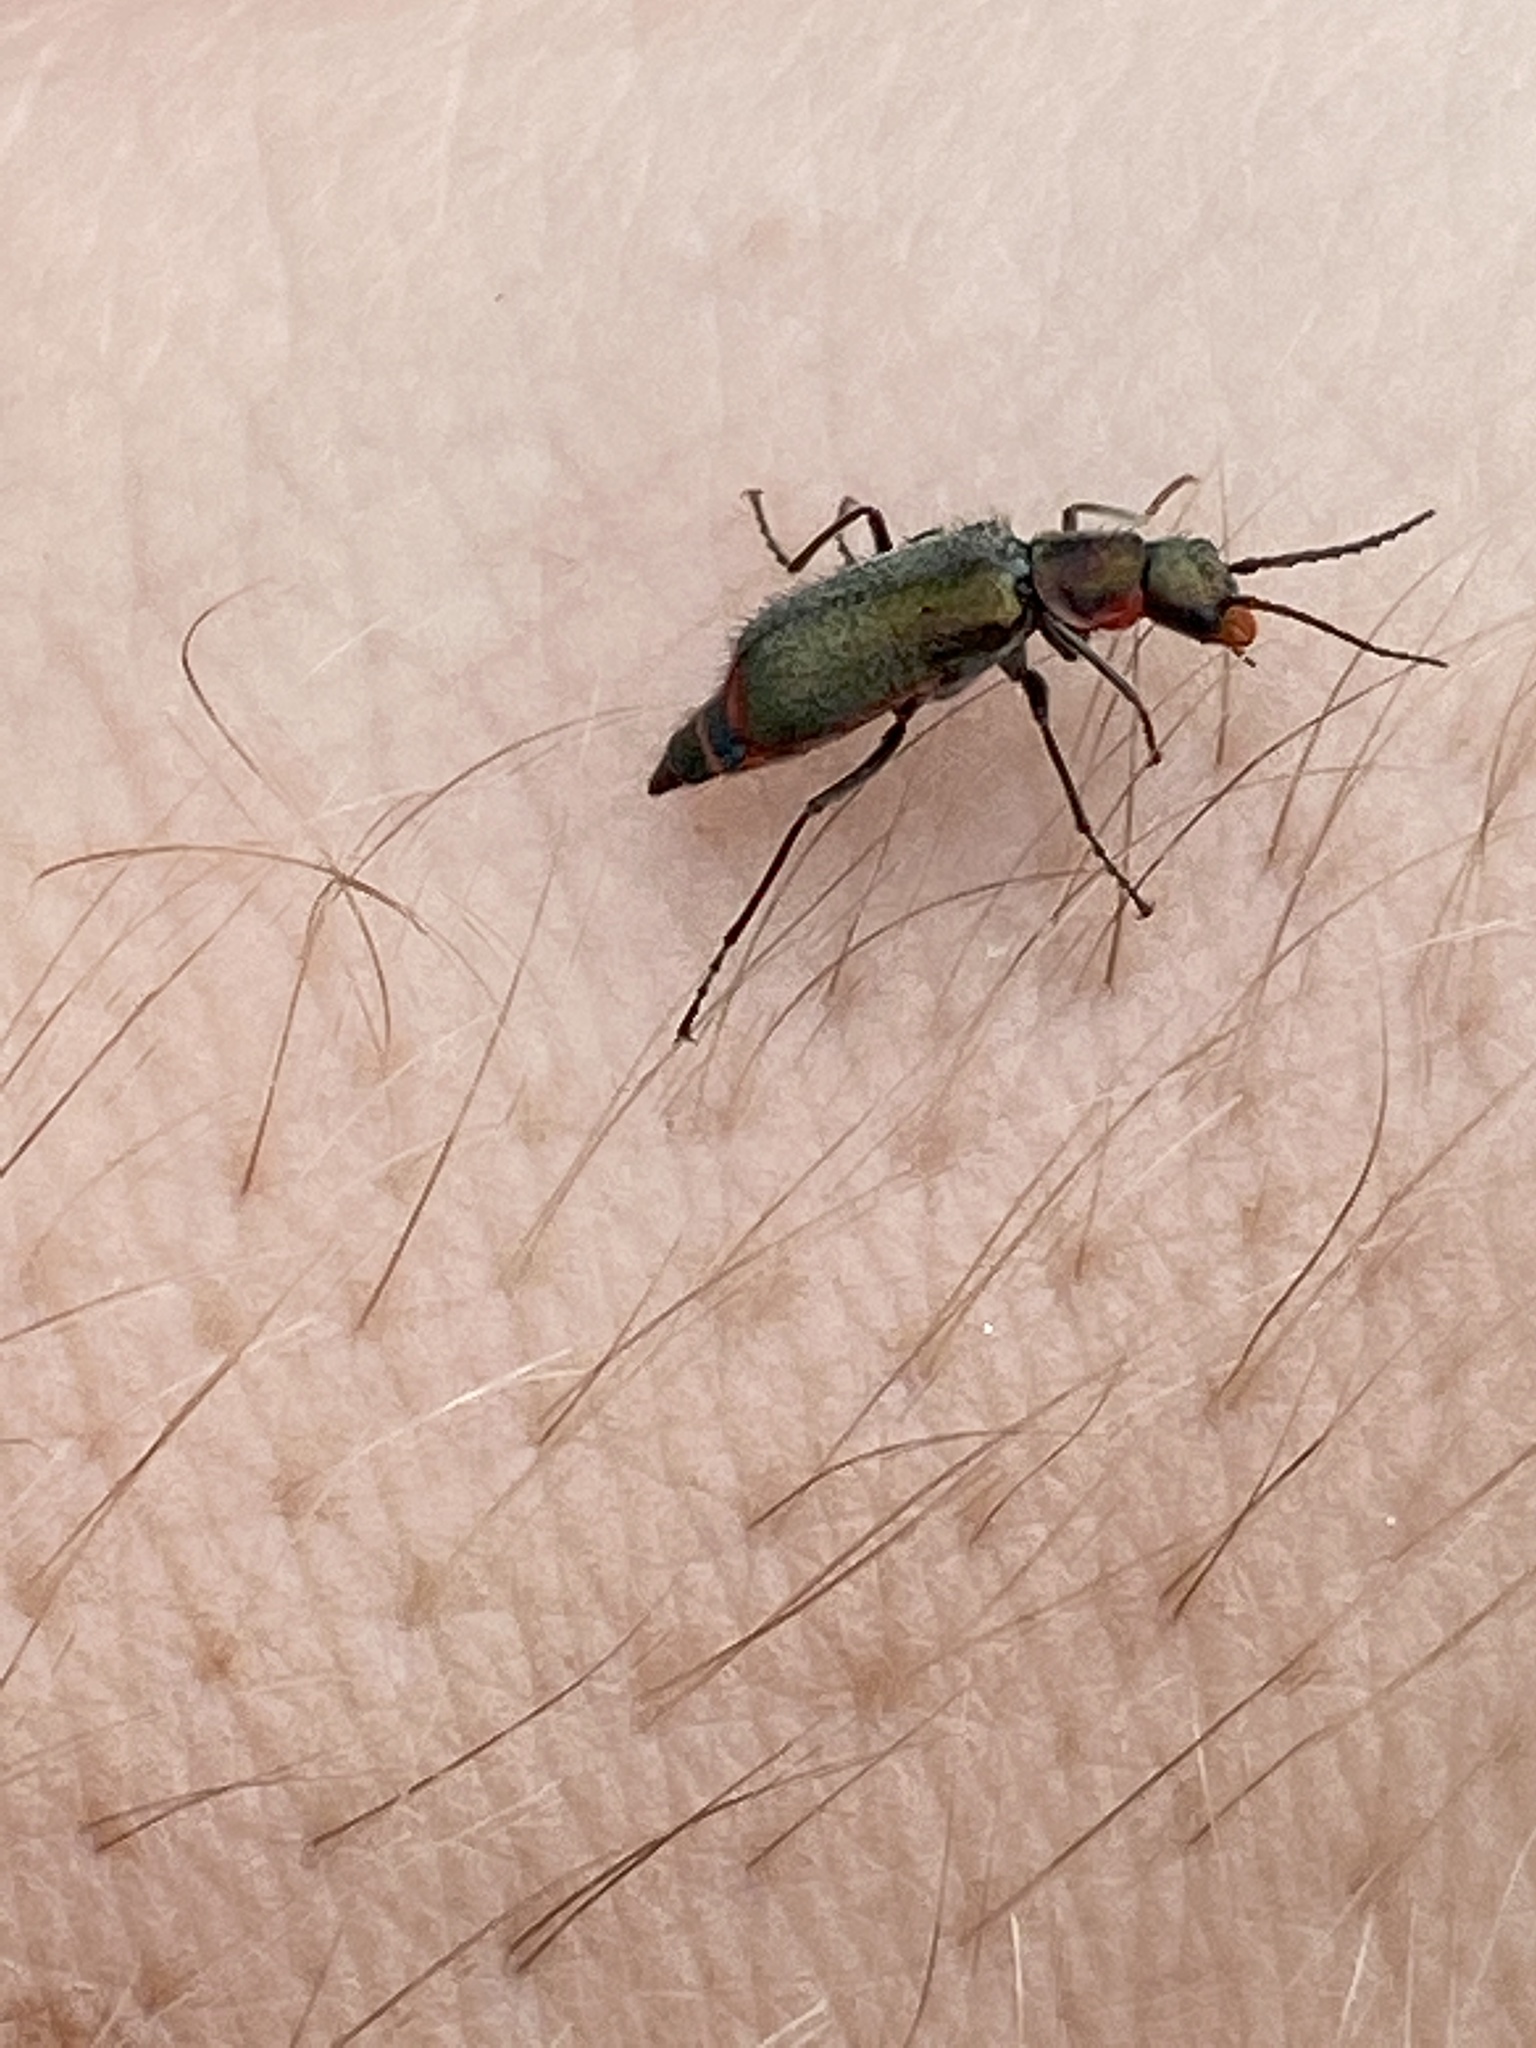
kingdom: Animalia
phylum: Arthropoda
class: Insecta
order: Coleoptera
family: Malachiidae
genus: Cordylepherus
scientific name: Cordylepherus viridis
